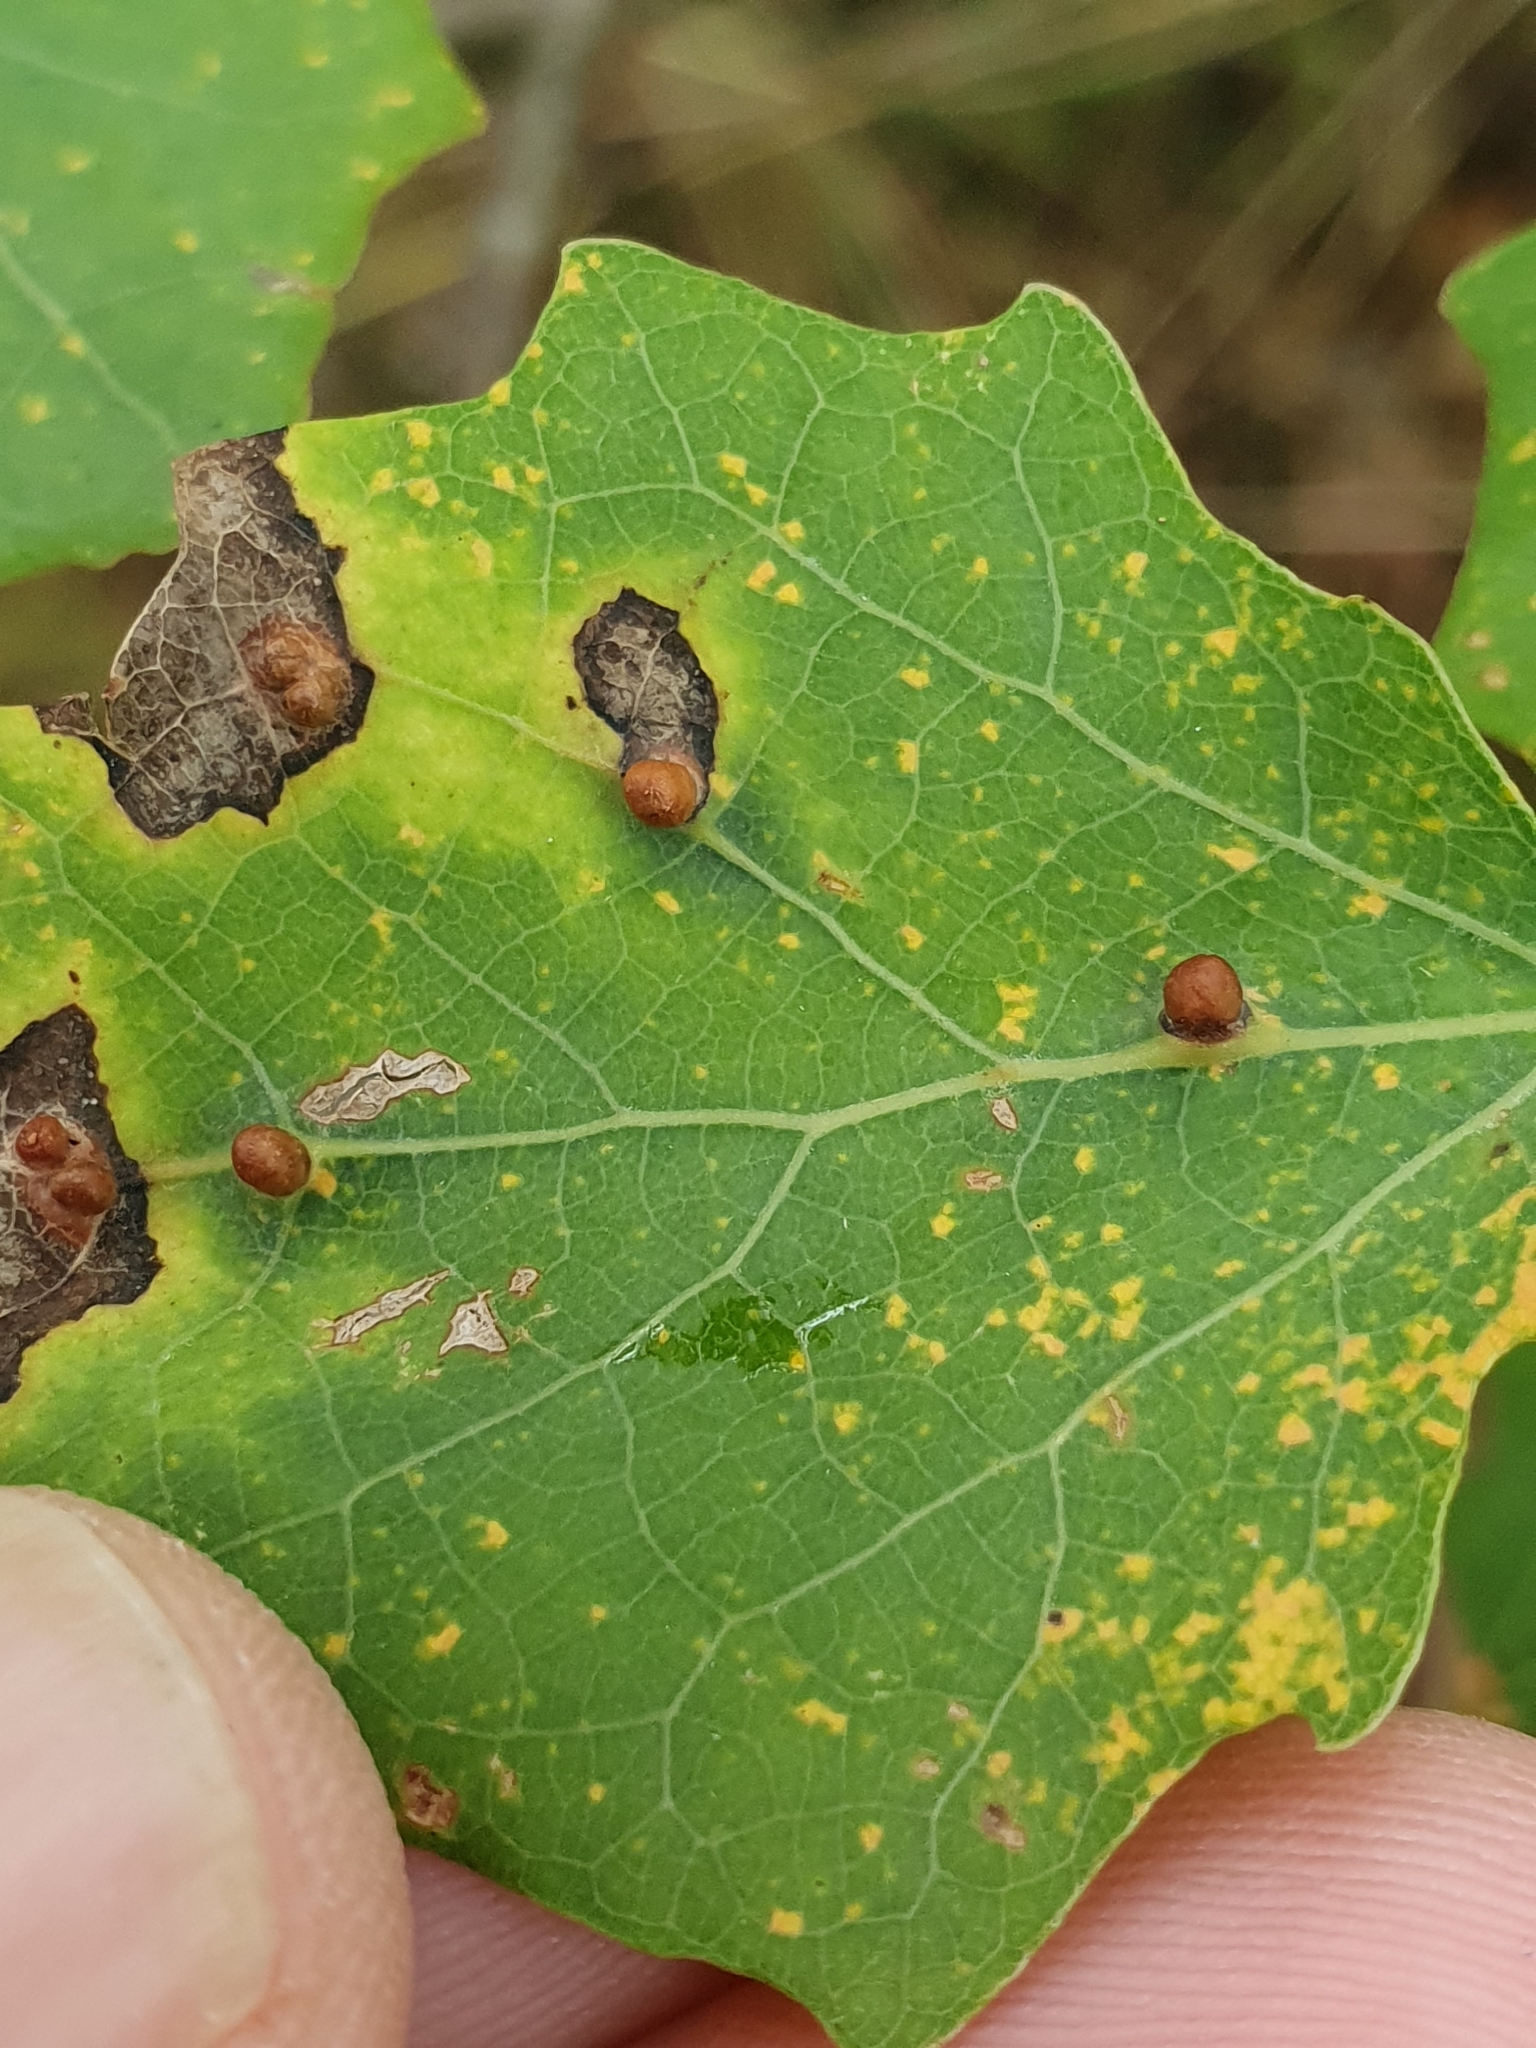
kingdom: Animalia
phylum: Arthropoda
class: Insecta
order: Diptera
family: Cecidomyiidae
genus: Harmandiola
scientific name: Harmandiola globuli
